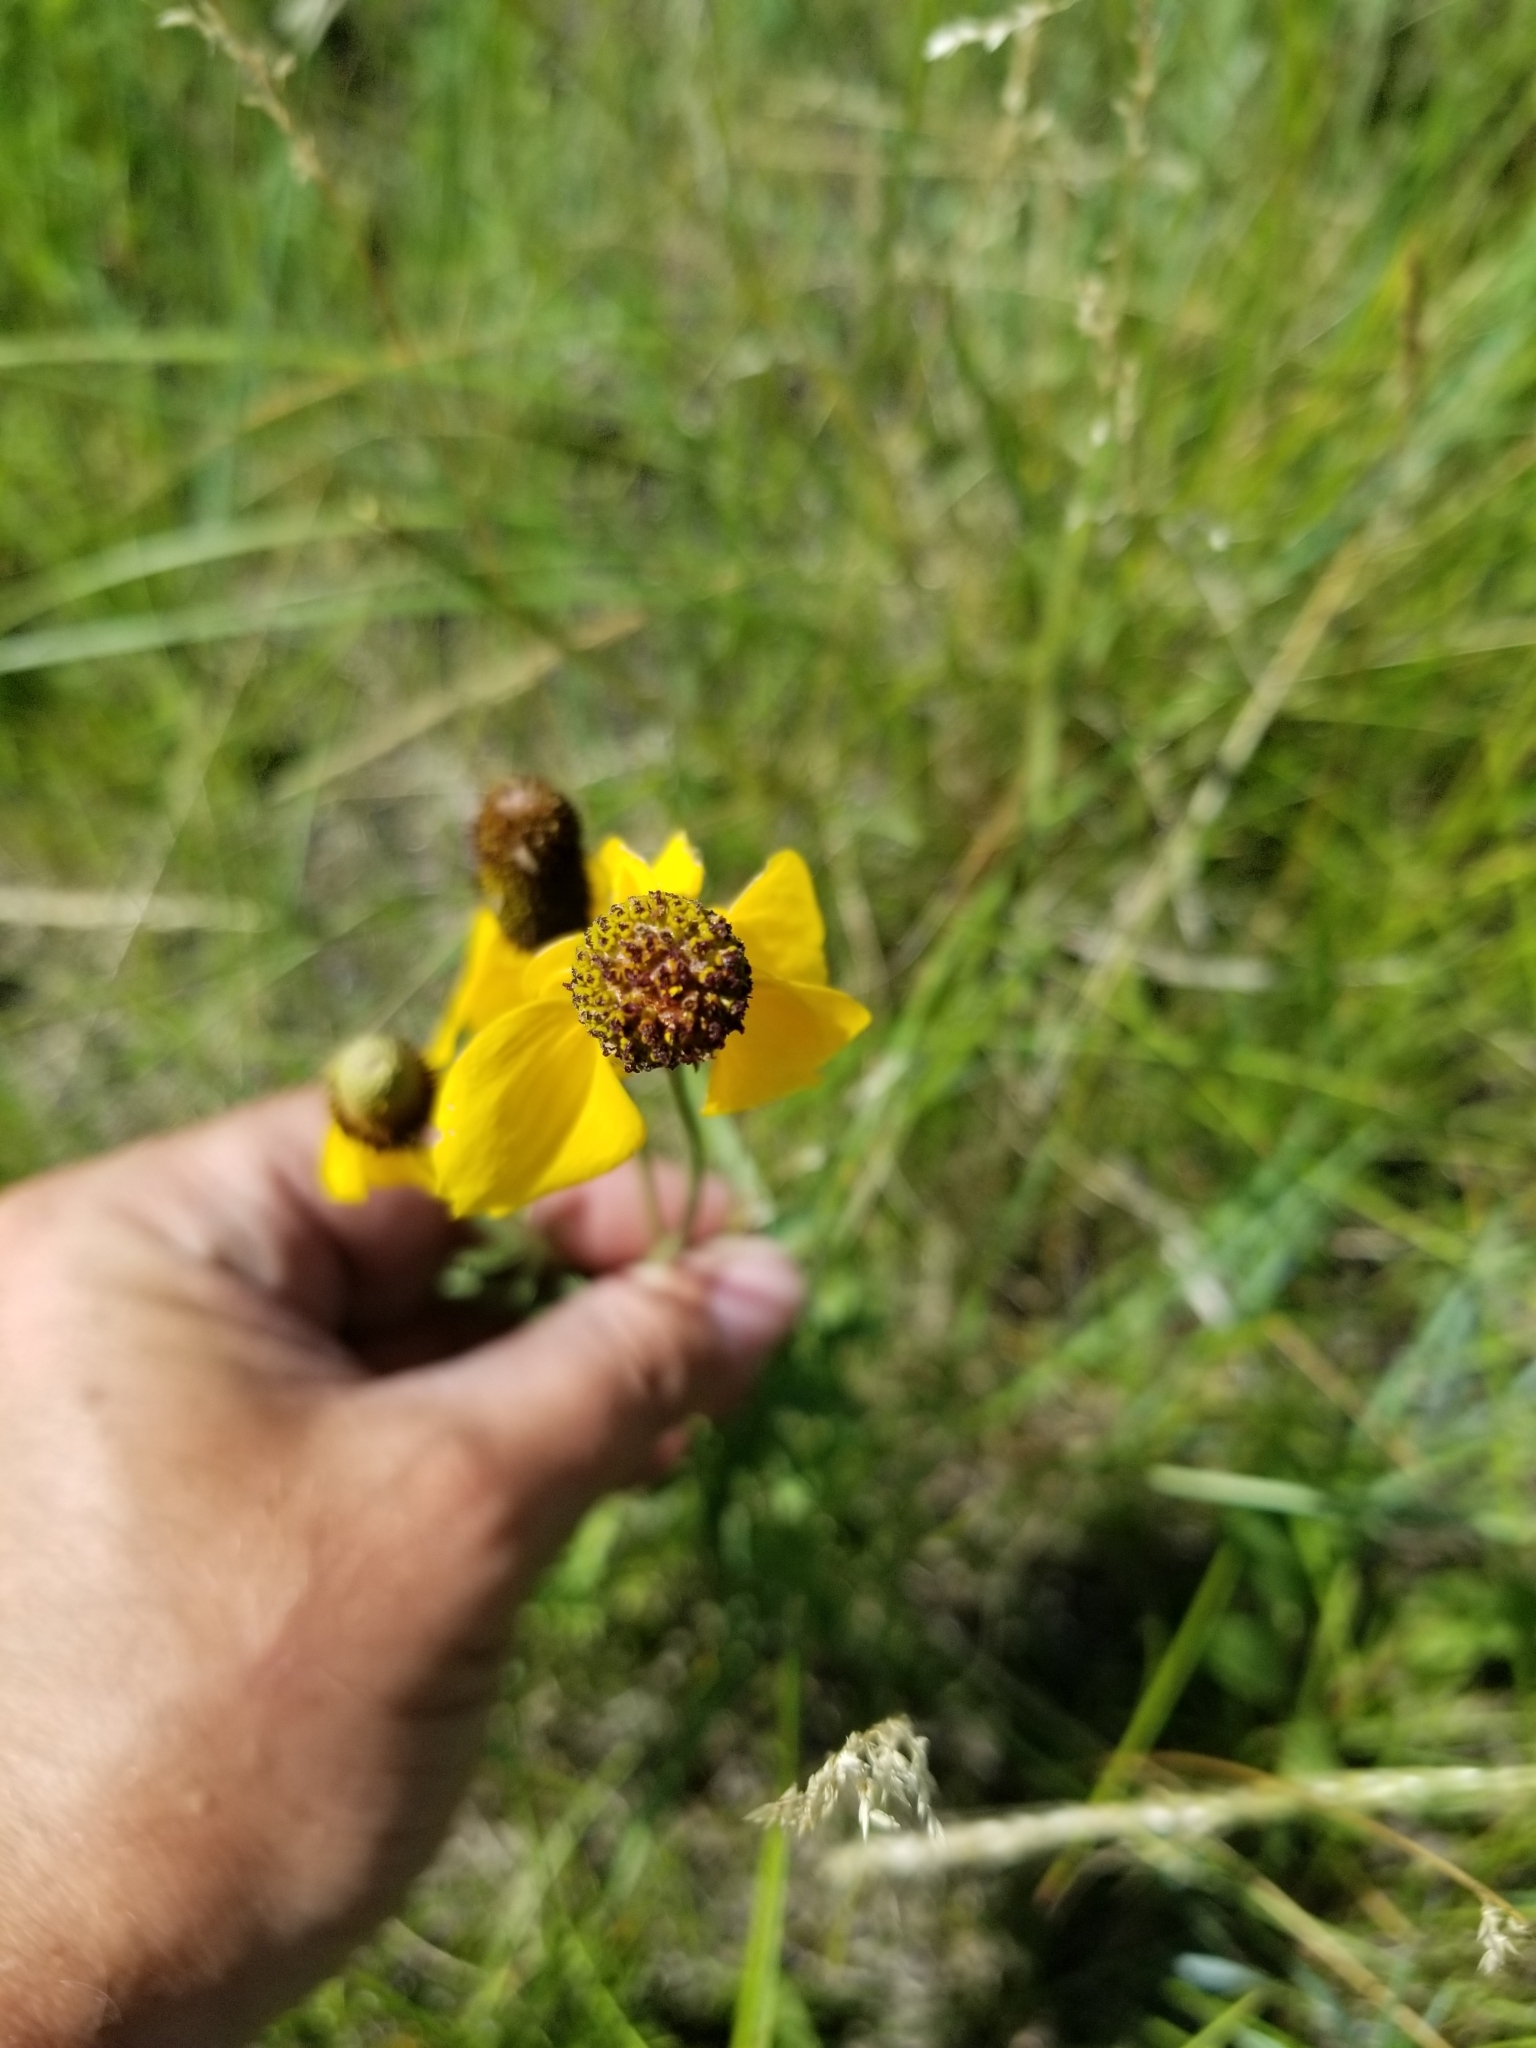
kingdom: Plantae
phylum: Tracheophyta
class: Magnoliopsida
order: Asterales
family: Asteraceae
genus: Ratibida
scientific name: Ratibida columnifera
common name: Prairie coneflower
